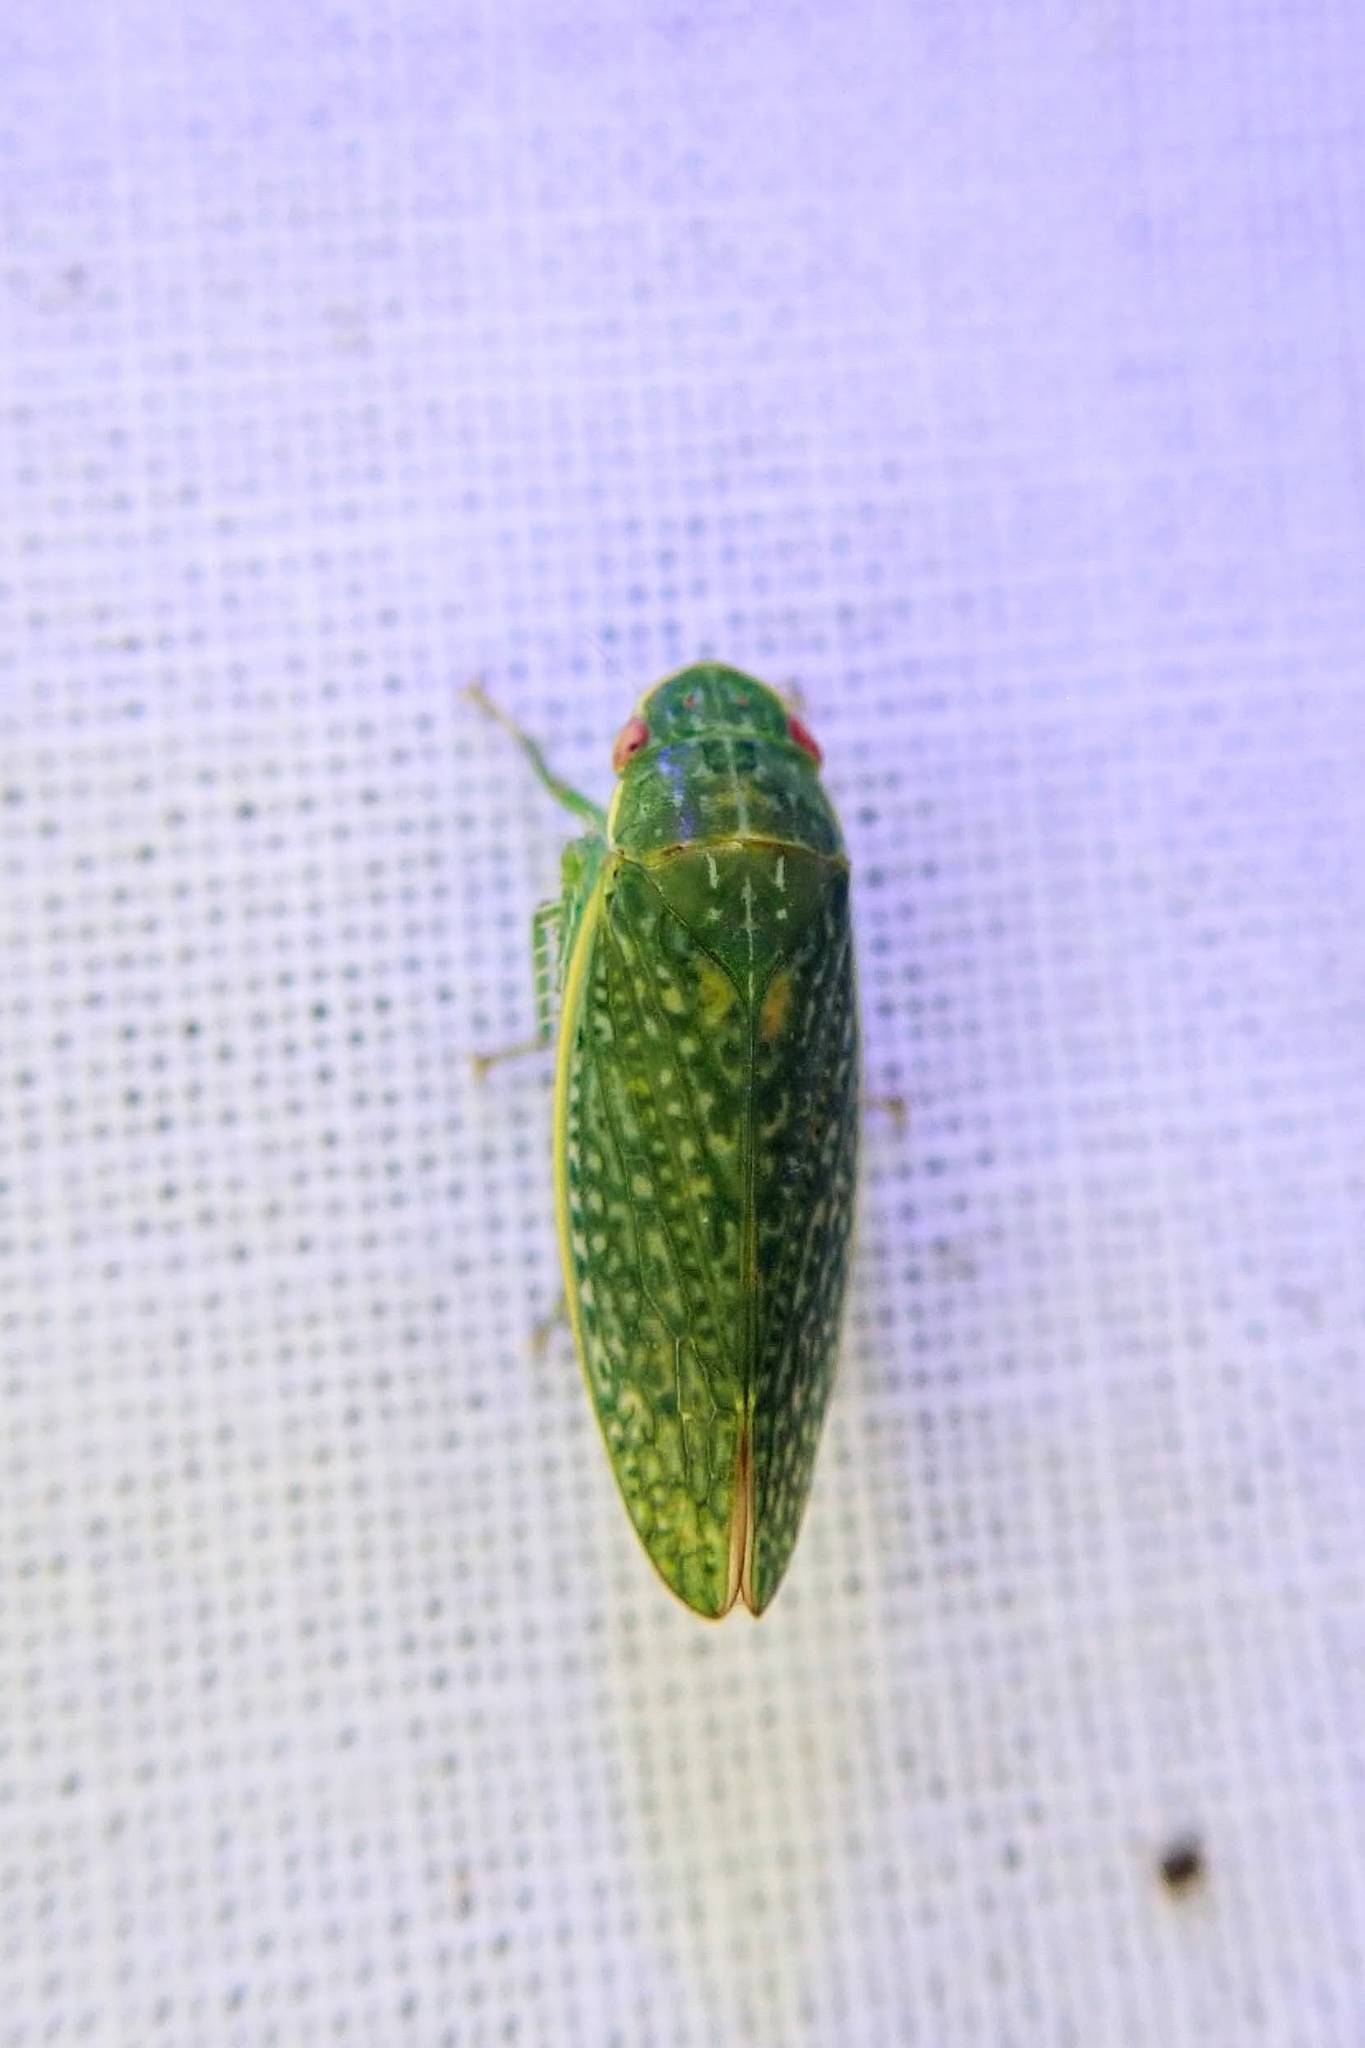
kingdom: Animalia
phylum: Arthropoda
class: Insecta
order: Hemiptera
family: Cicadellidae
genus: Rugosana
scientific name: Rugosana querci
